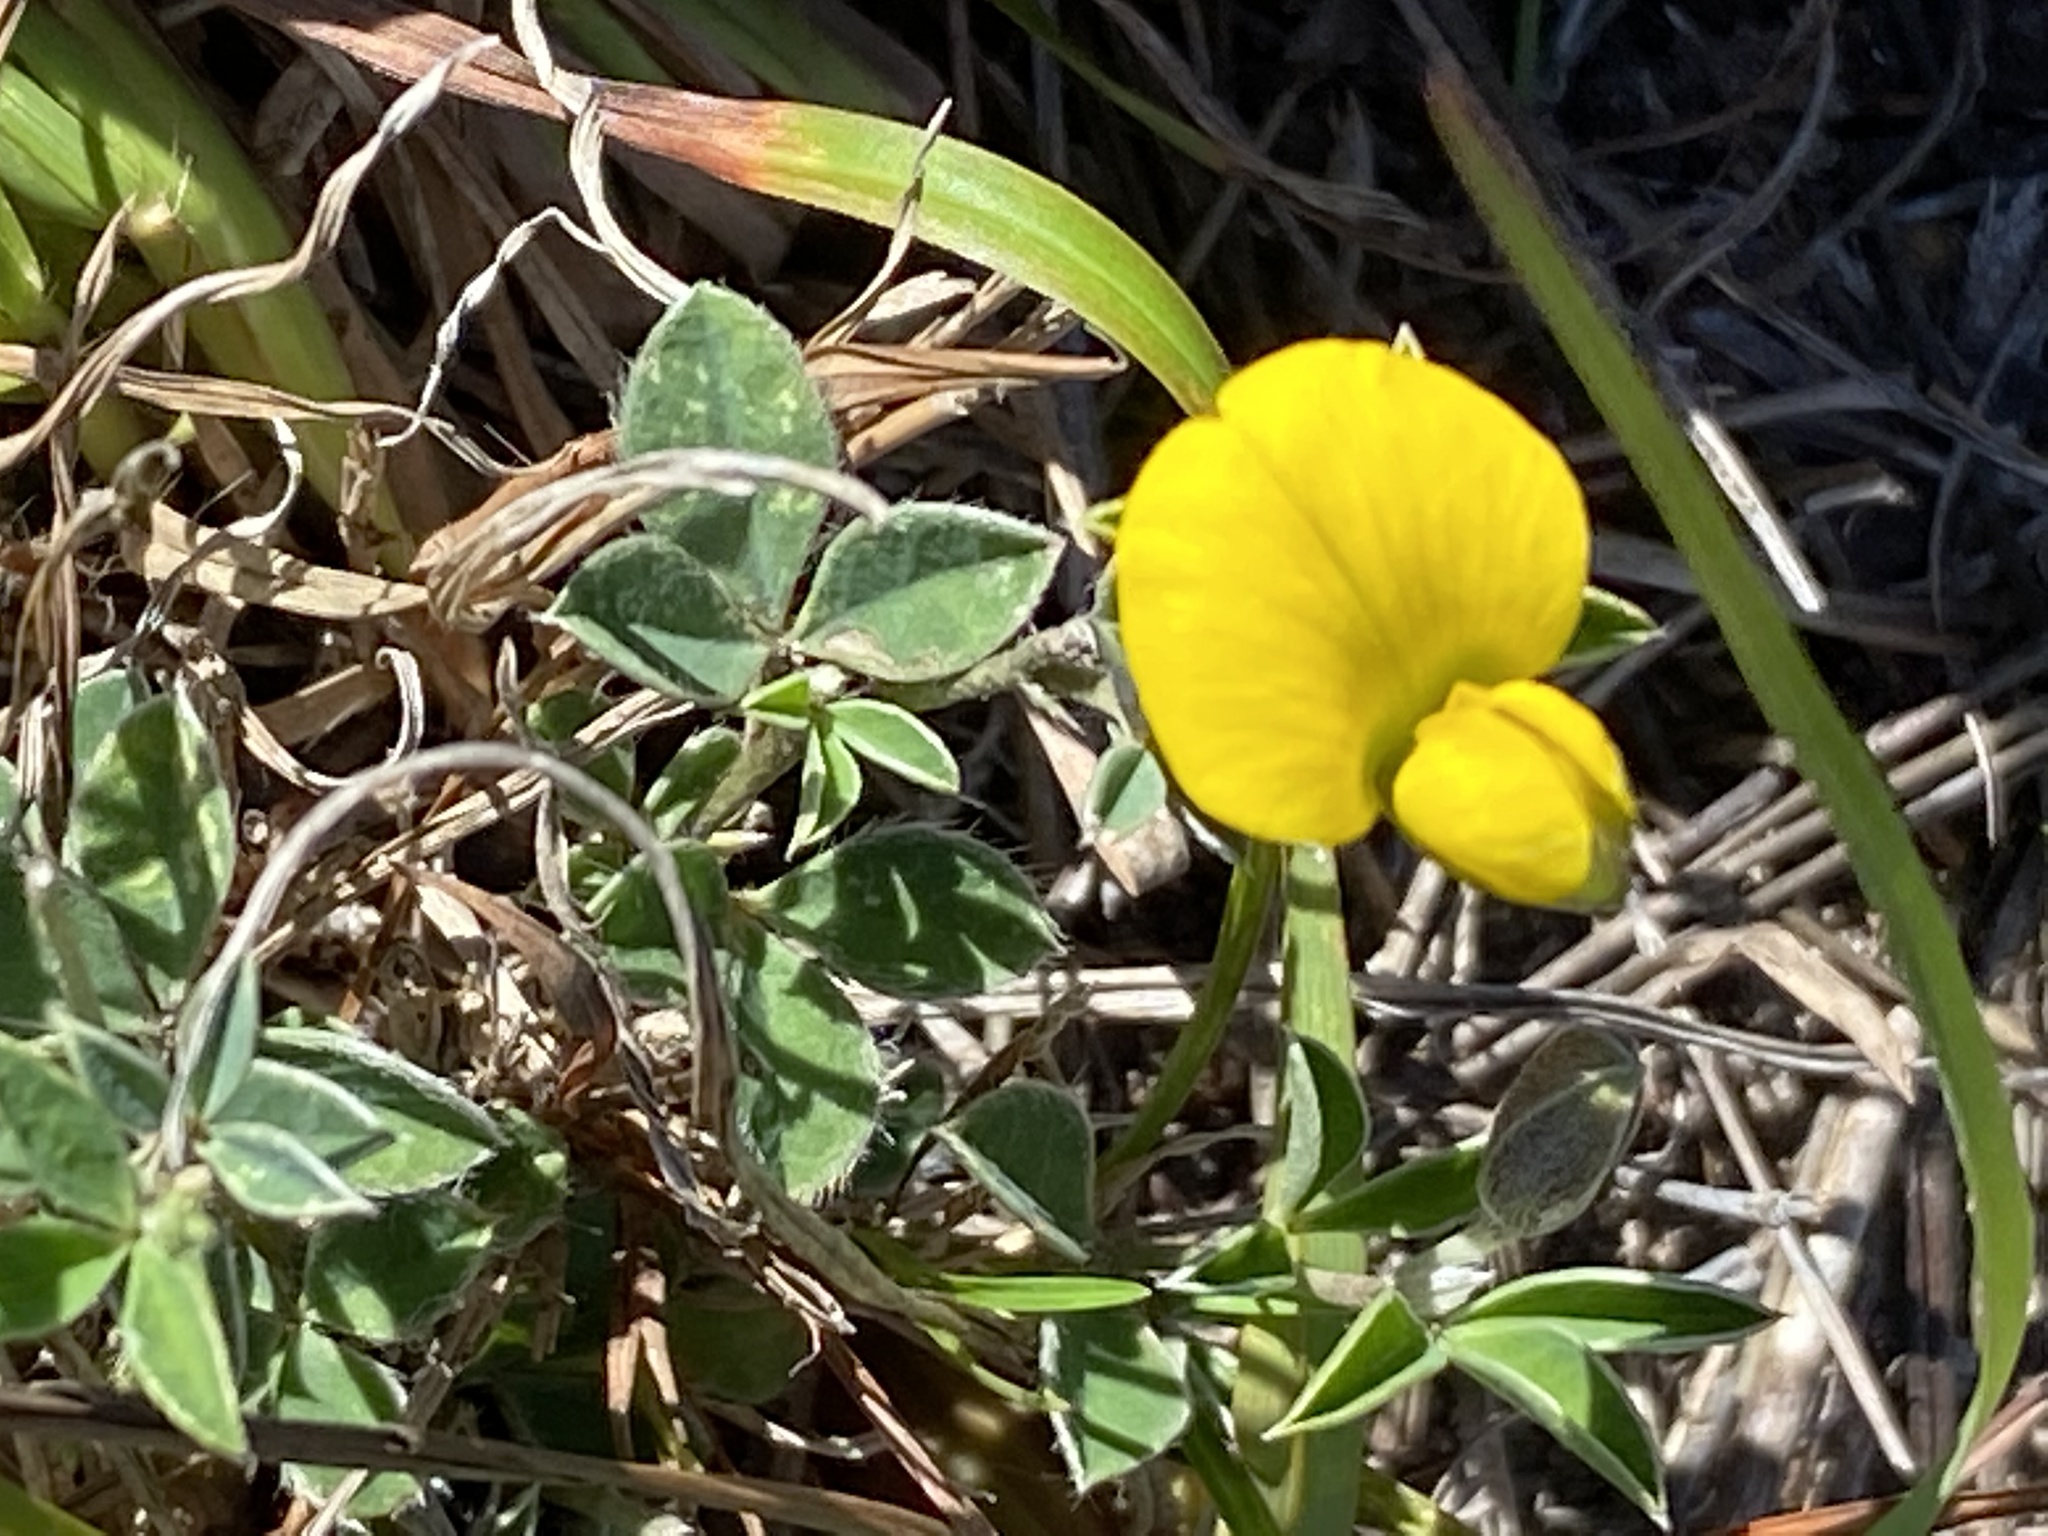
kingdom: Plantae
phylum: Tracheophyta
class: Magnoliopsida
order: Fabales
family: Fabaceae
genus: Argyrolobium
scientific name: Argyrolobium molle
